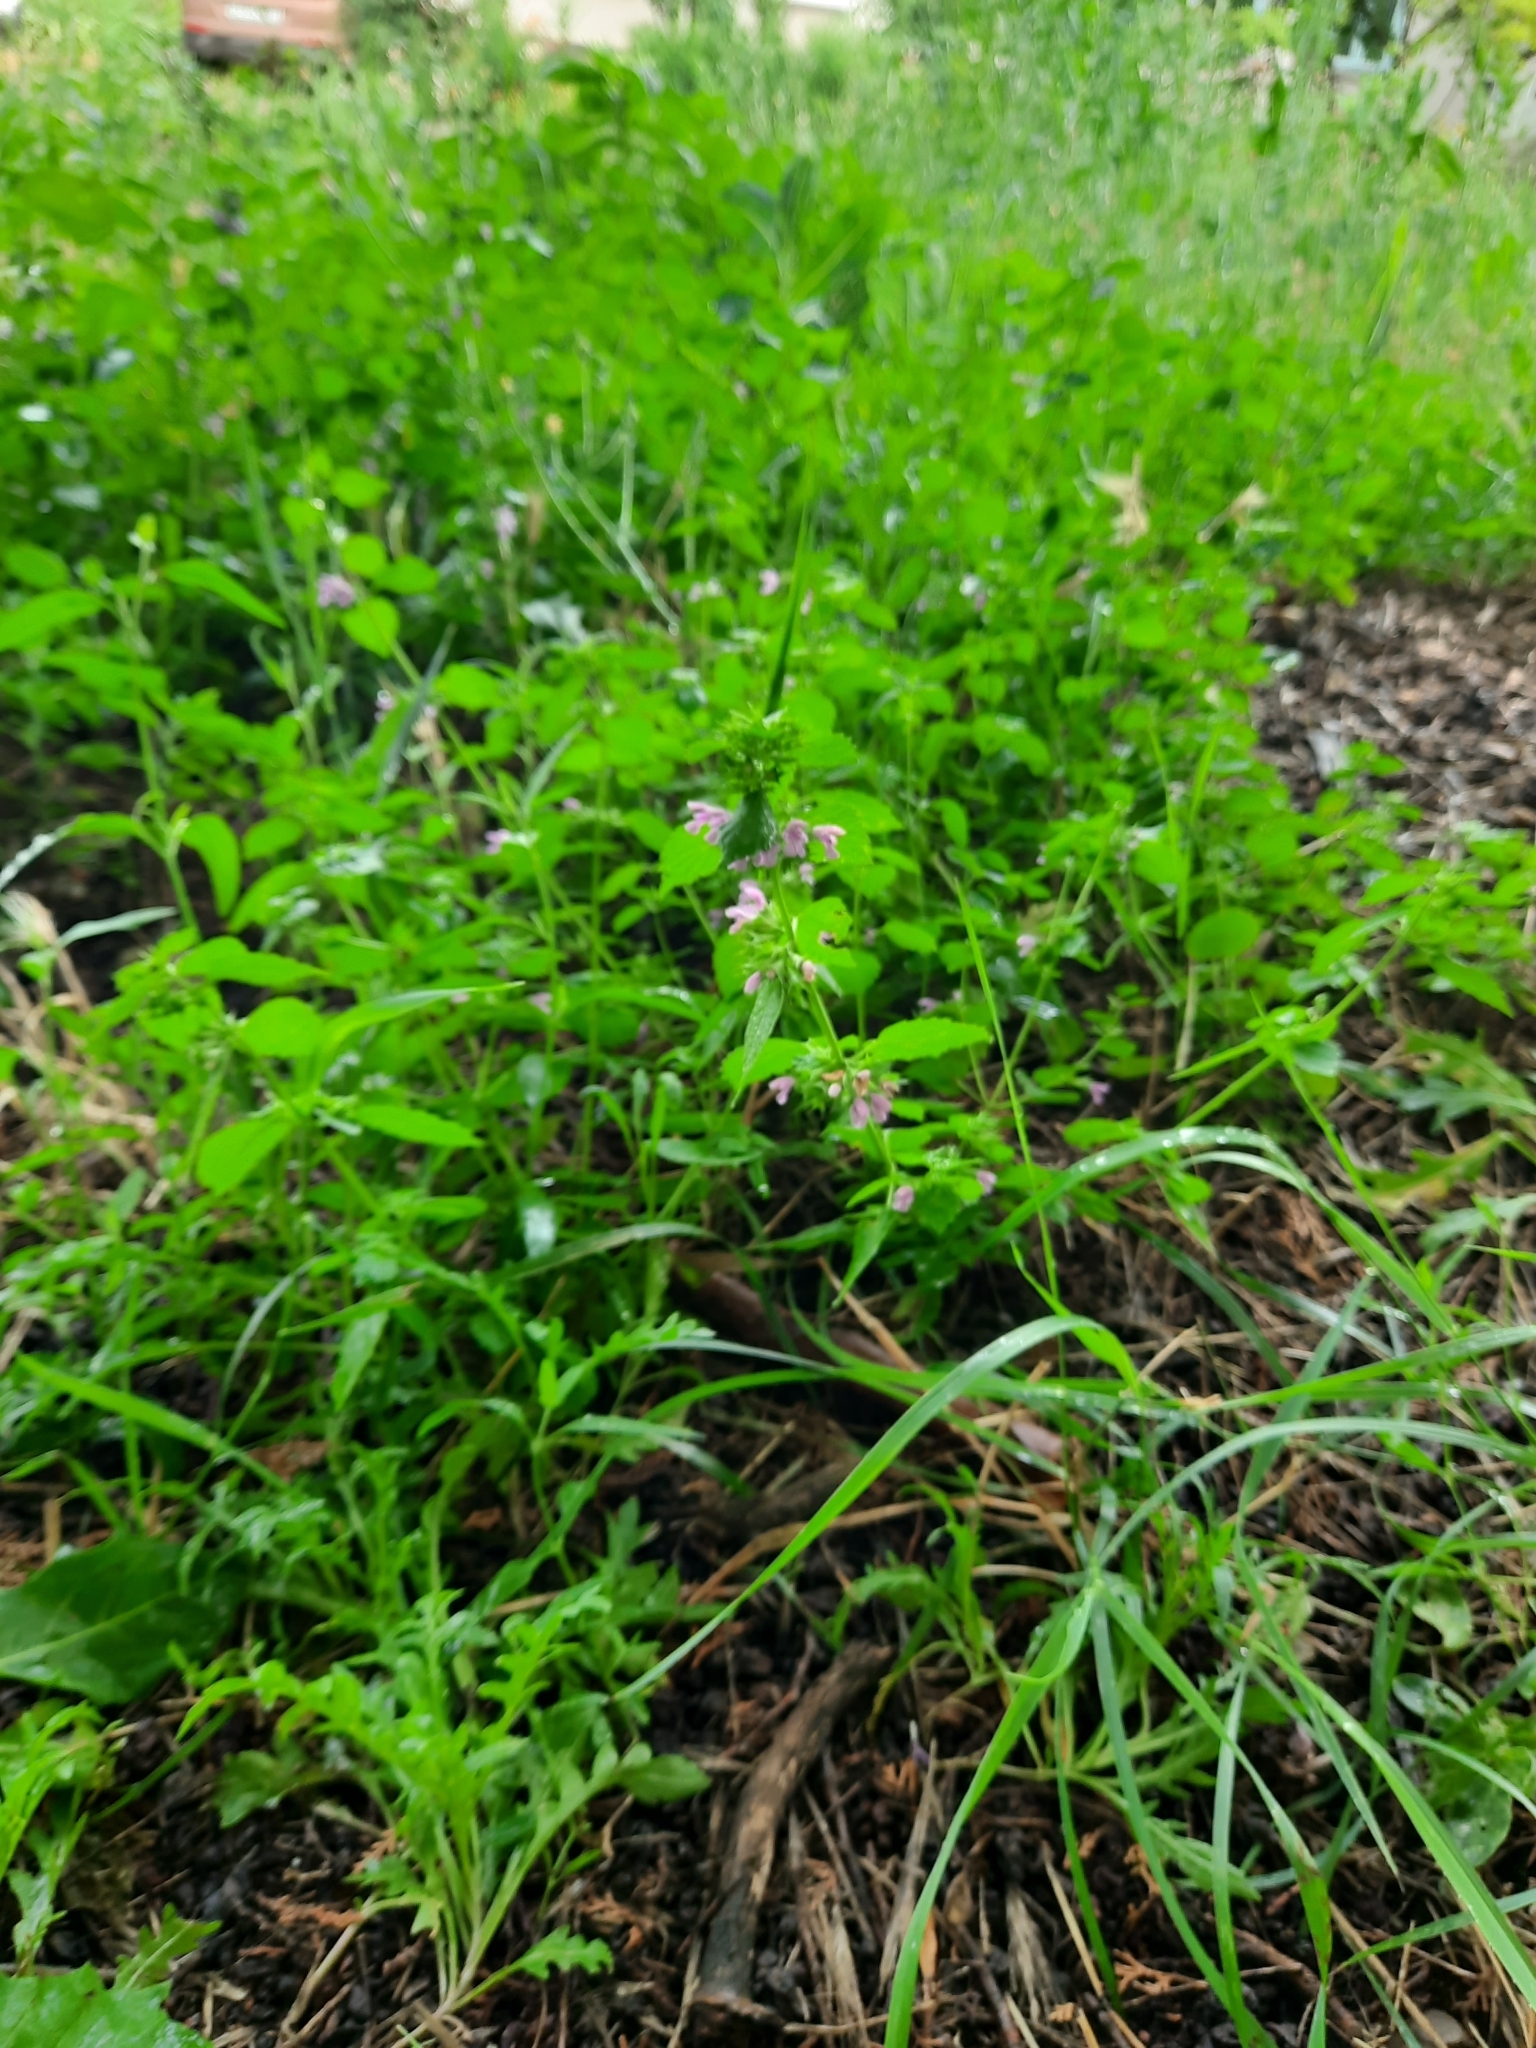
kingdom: Plantae
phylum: Tracheophyta
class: Magnoliopsida
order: Lamiales
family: Lamiaceae
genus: Ballota
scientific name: Ballota nigra
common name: Black horehound
